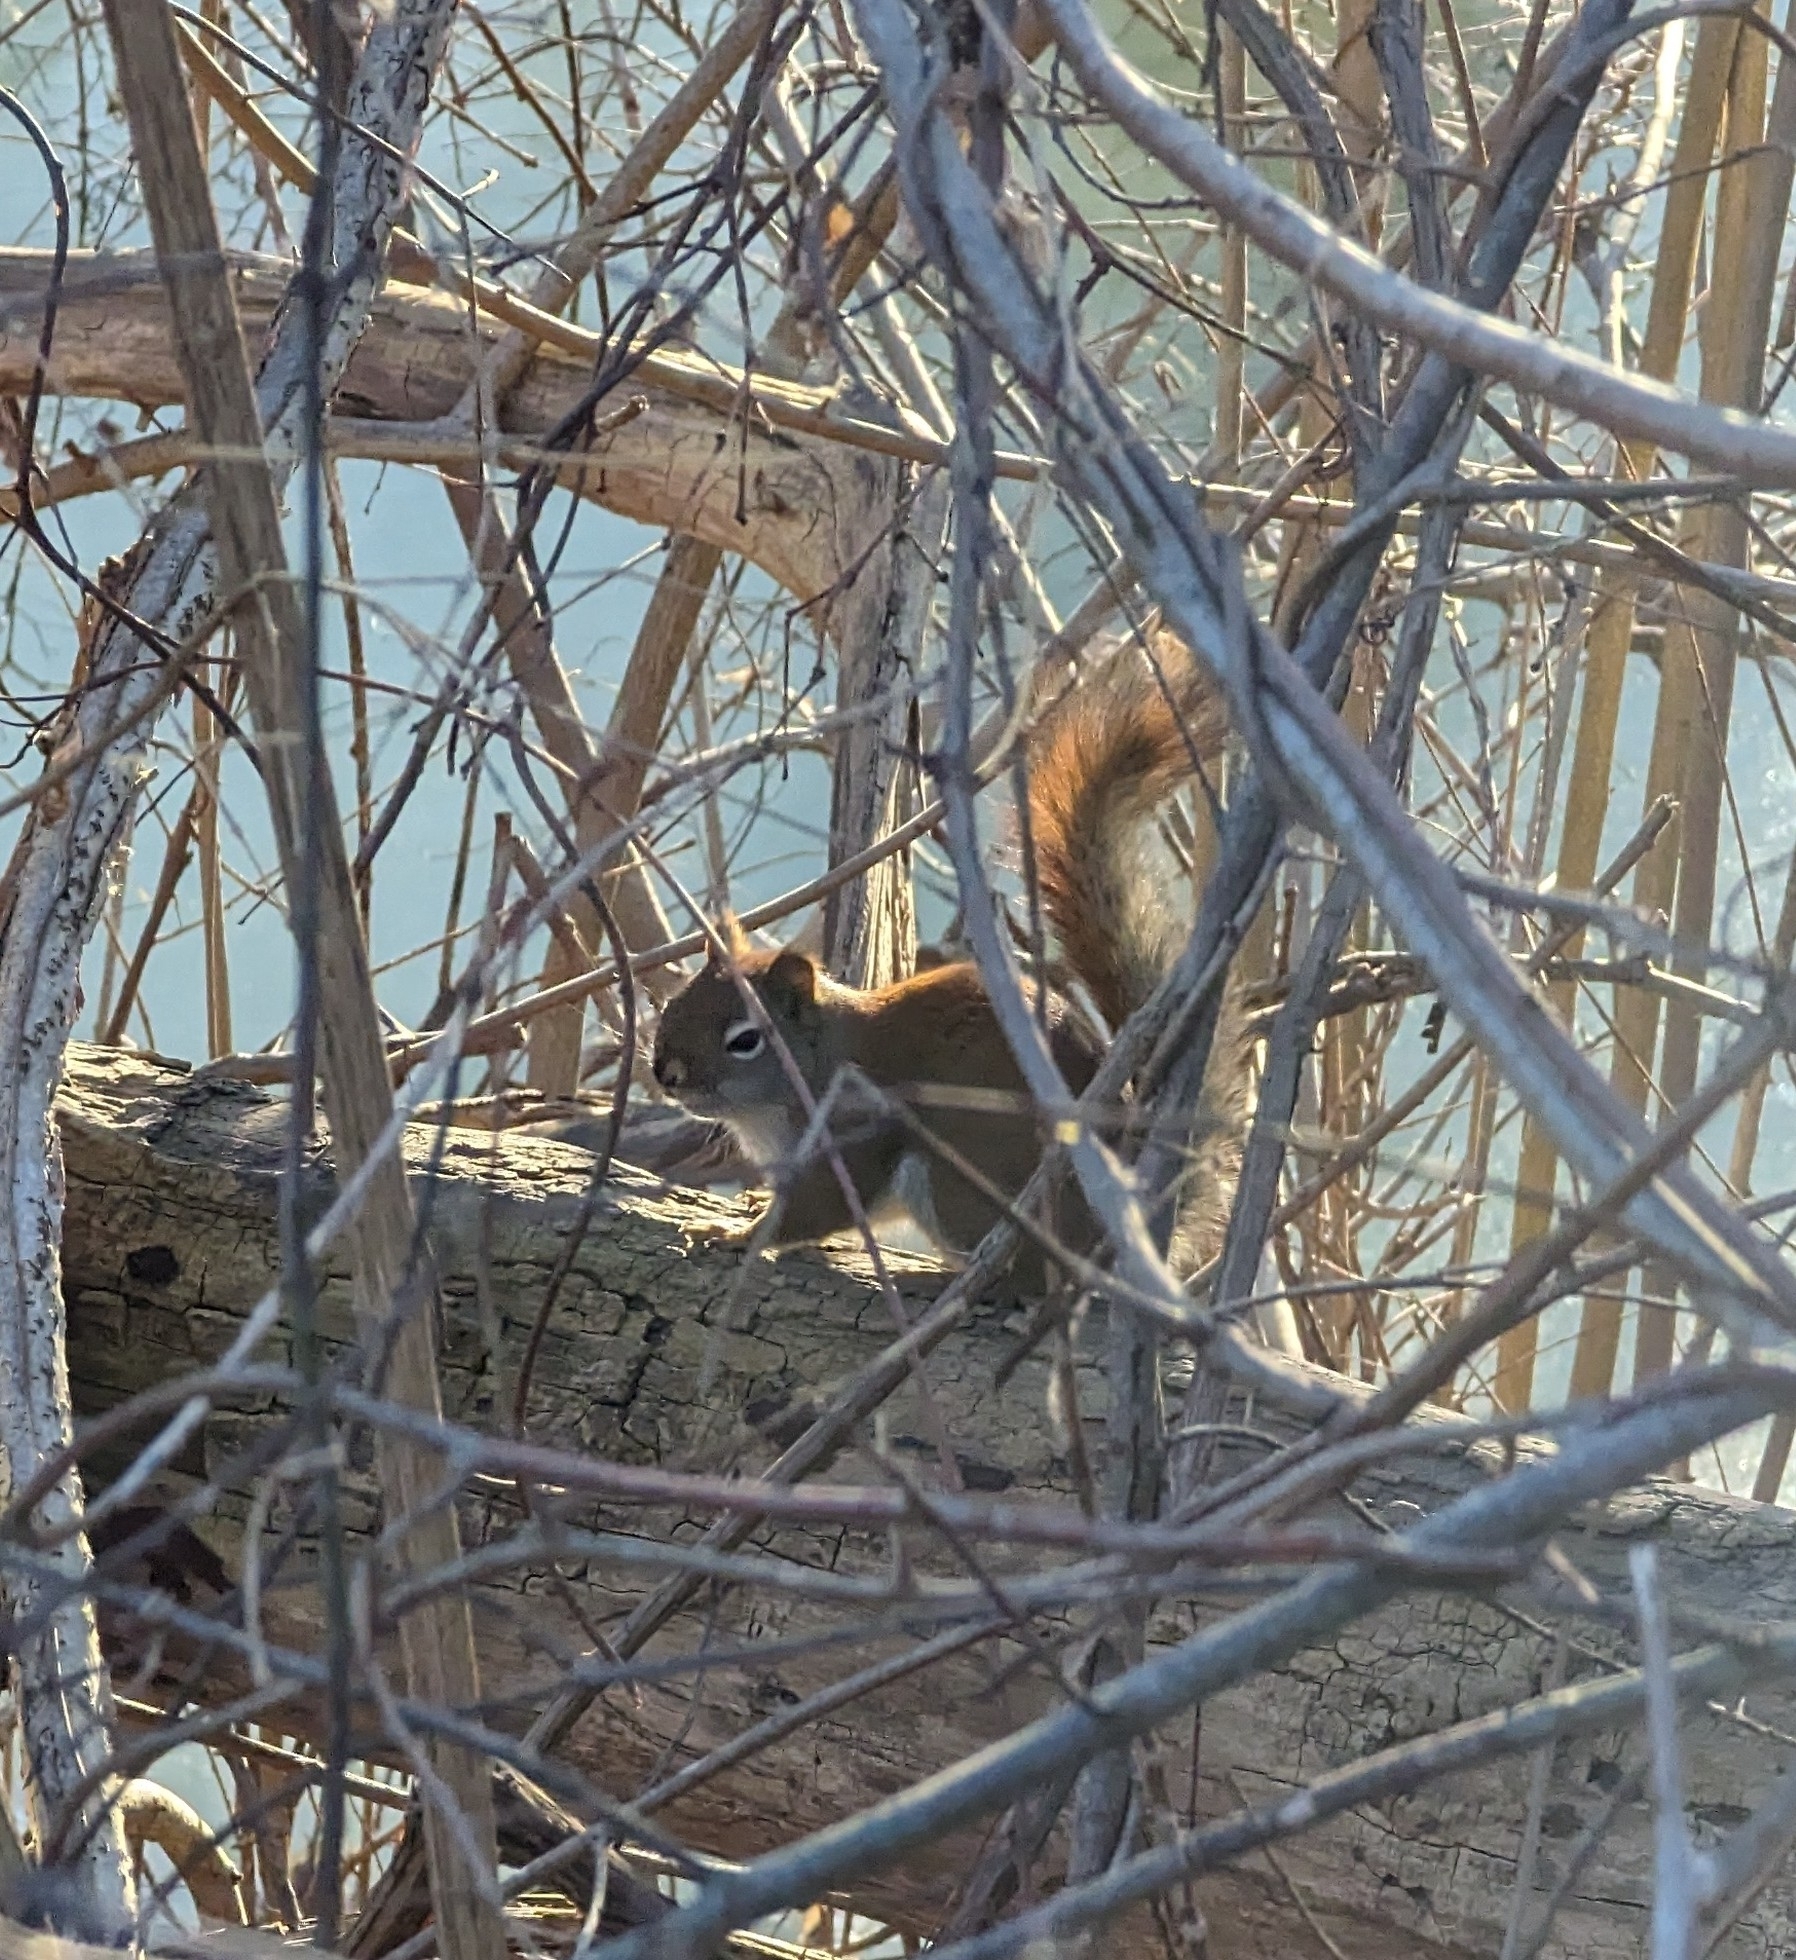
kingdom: Animalia
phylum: Chordata
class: Mammalia
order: Rodentia
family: Sciuridae
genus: Tamiasciurus
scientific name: Tamiasciurus hudsonicus
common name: Red squirrel
